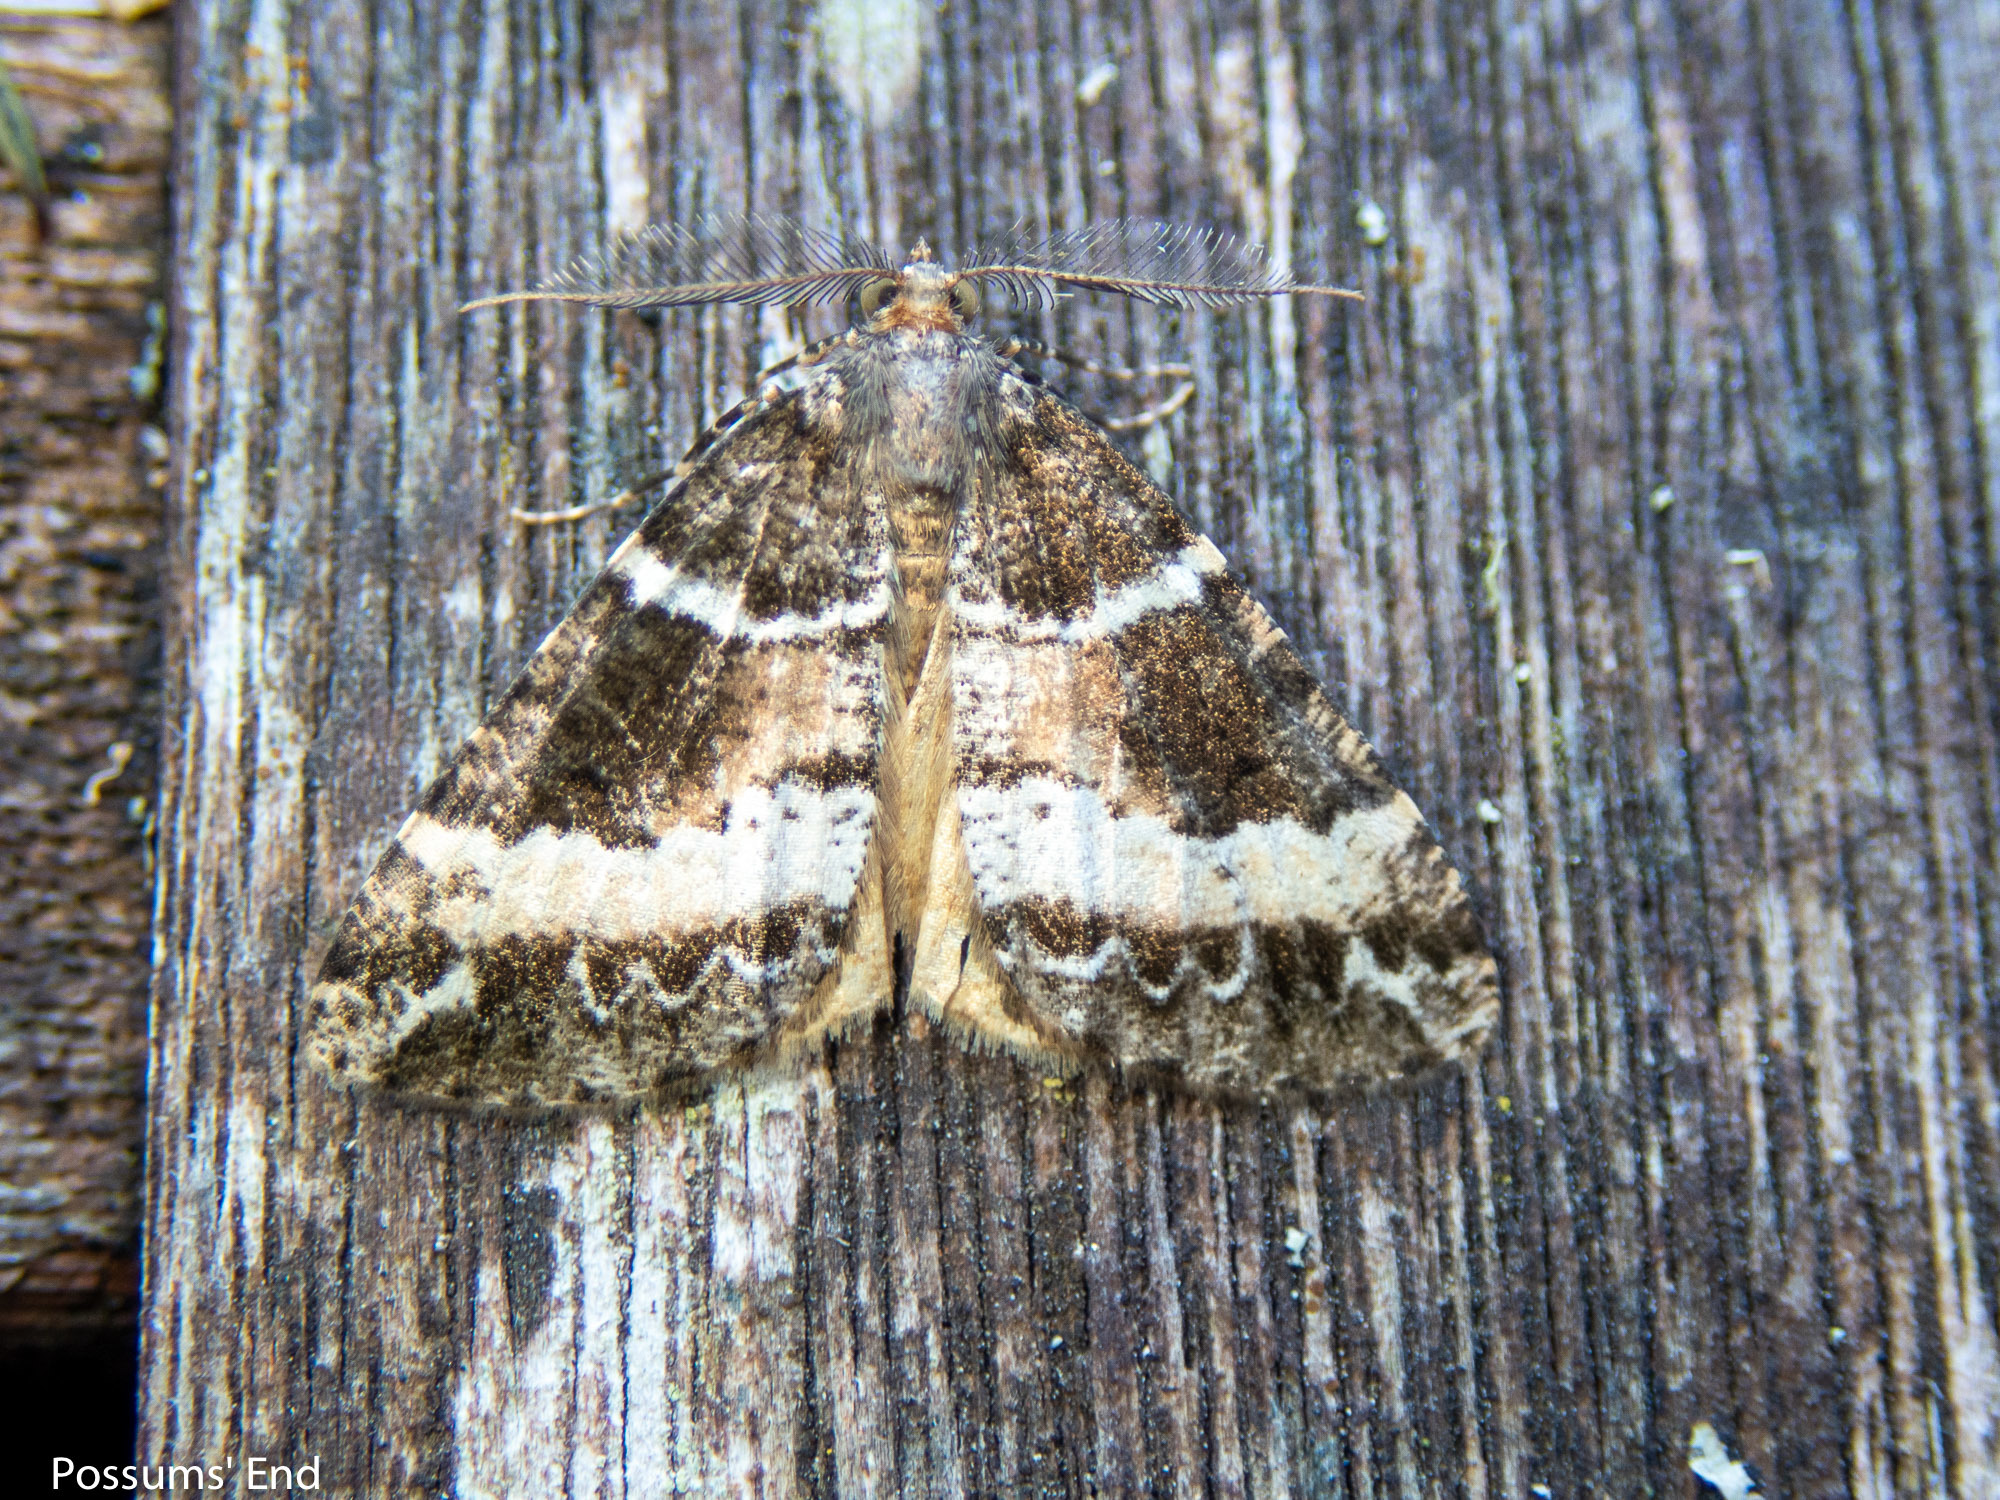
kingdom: Animalia
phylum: Arthropoda
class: Insecta
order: Lepidoptera
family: Geometridae
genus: Pseudocoremia
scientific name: Pseudocoremia
